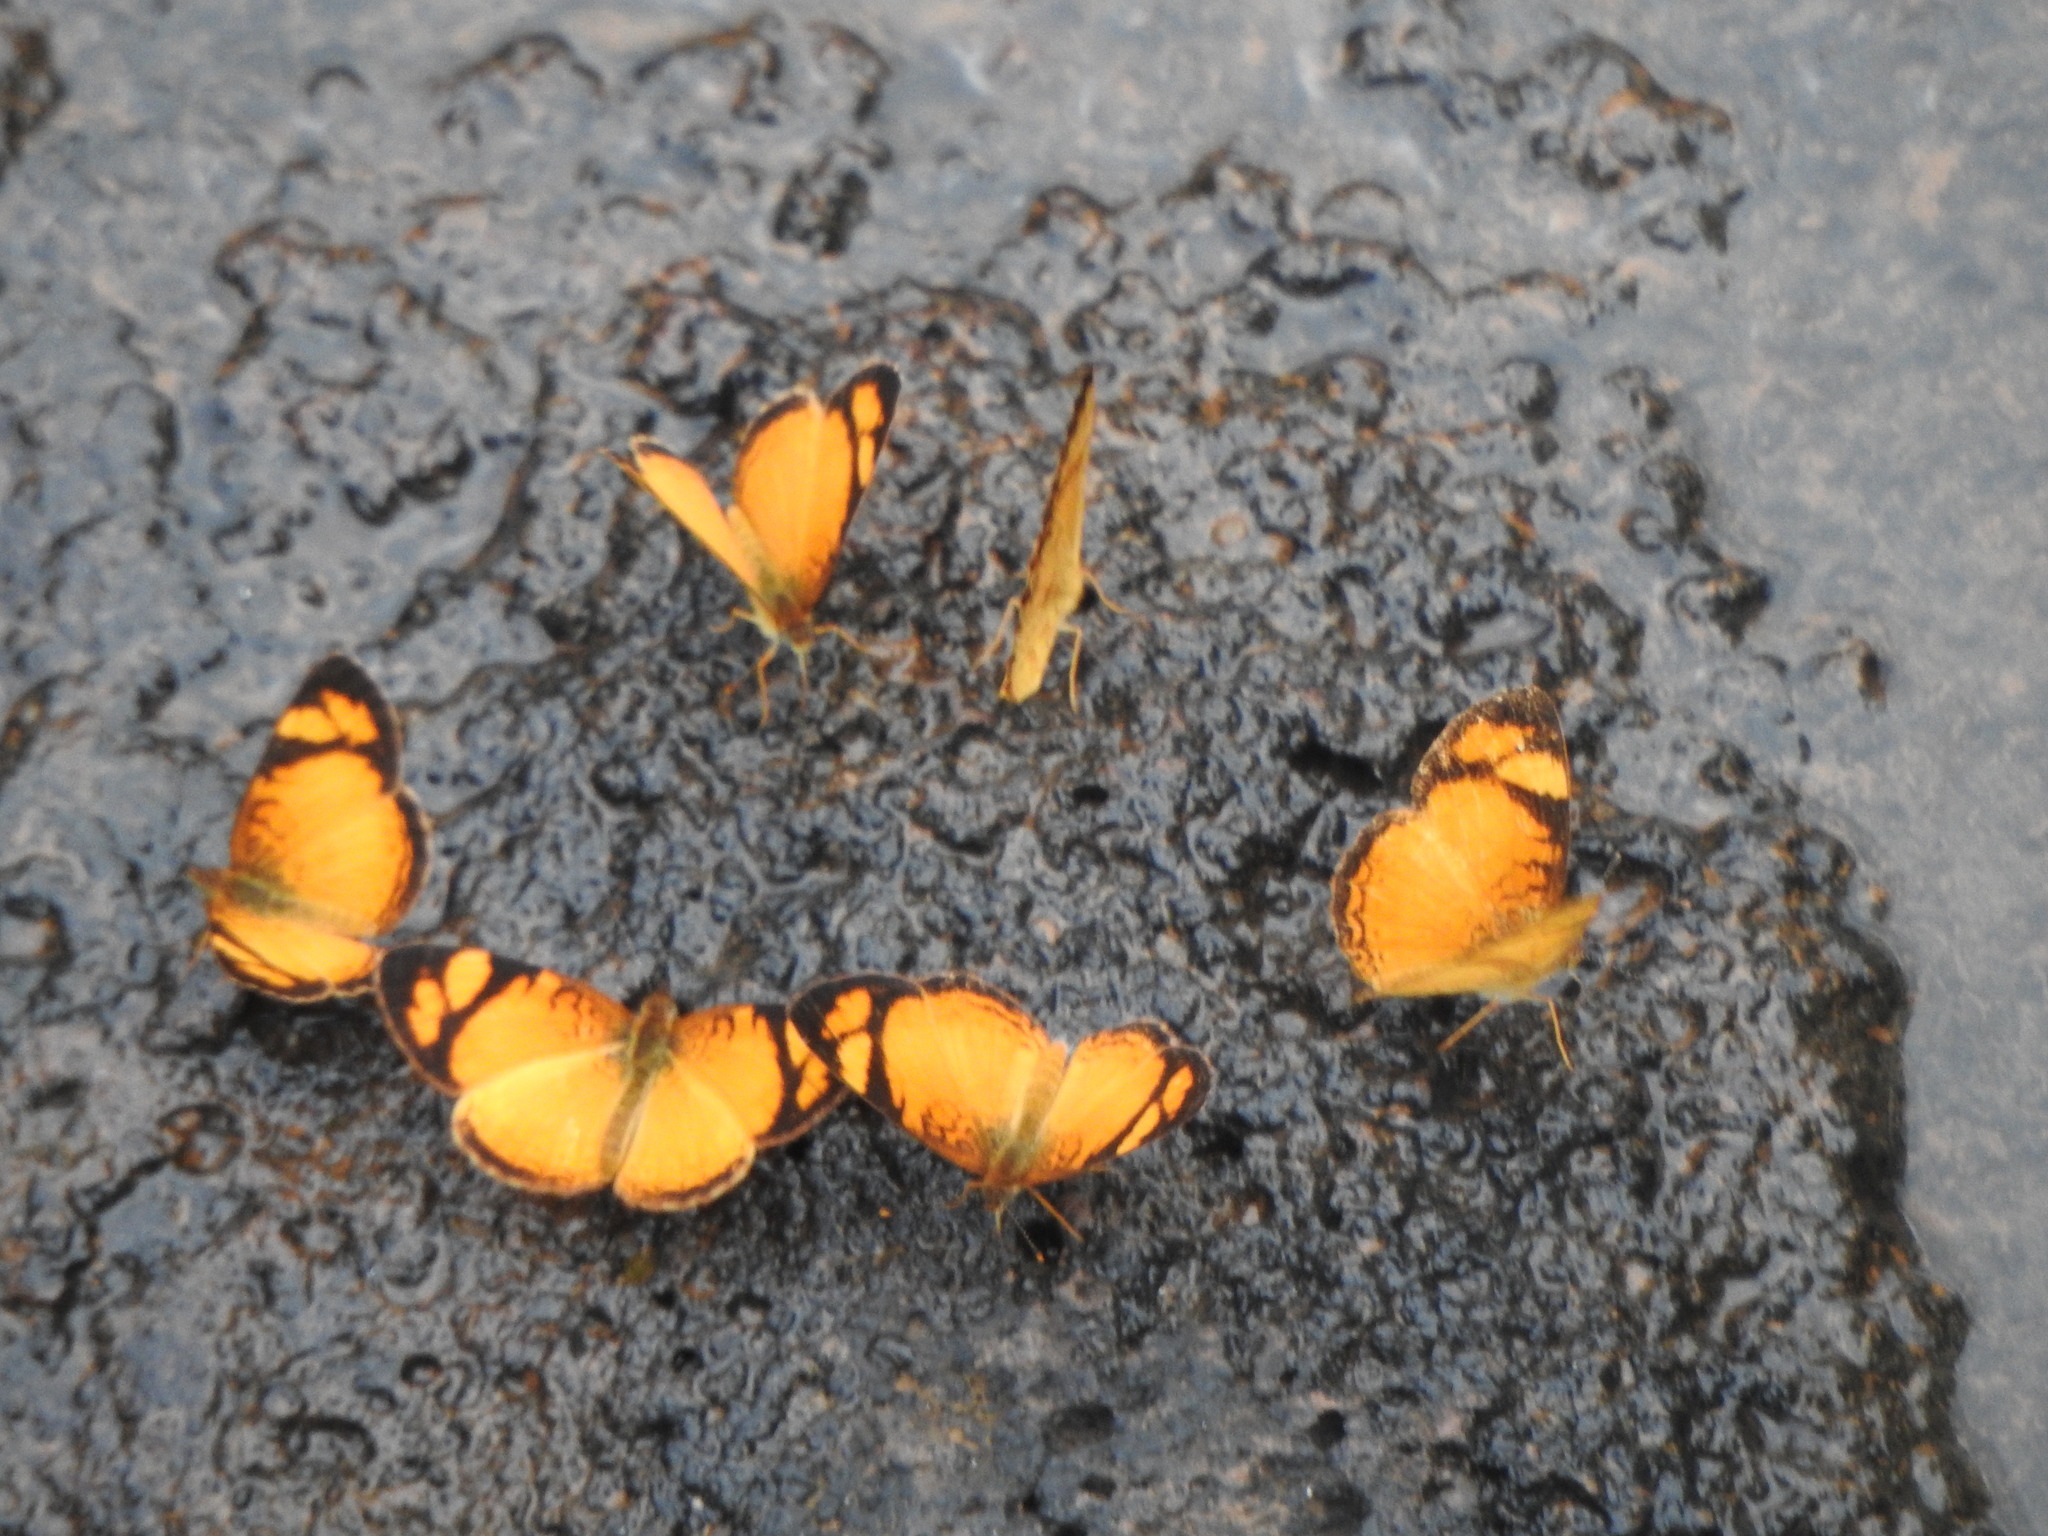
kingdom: Animalia
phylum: Arthropoda
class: Insecta
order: Lepidoptera
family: Nymphalidae
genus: Tegosa
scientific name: Tegosa claudina
